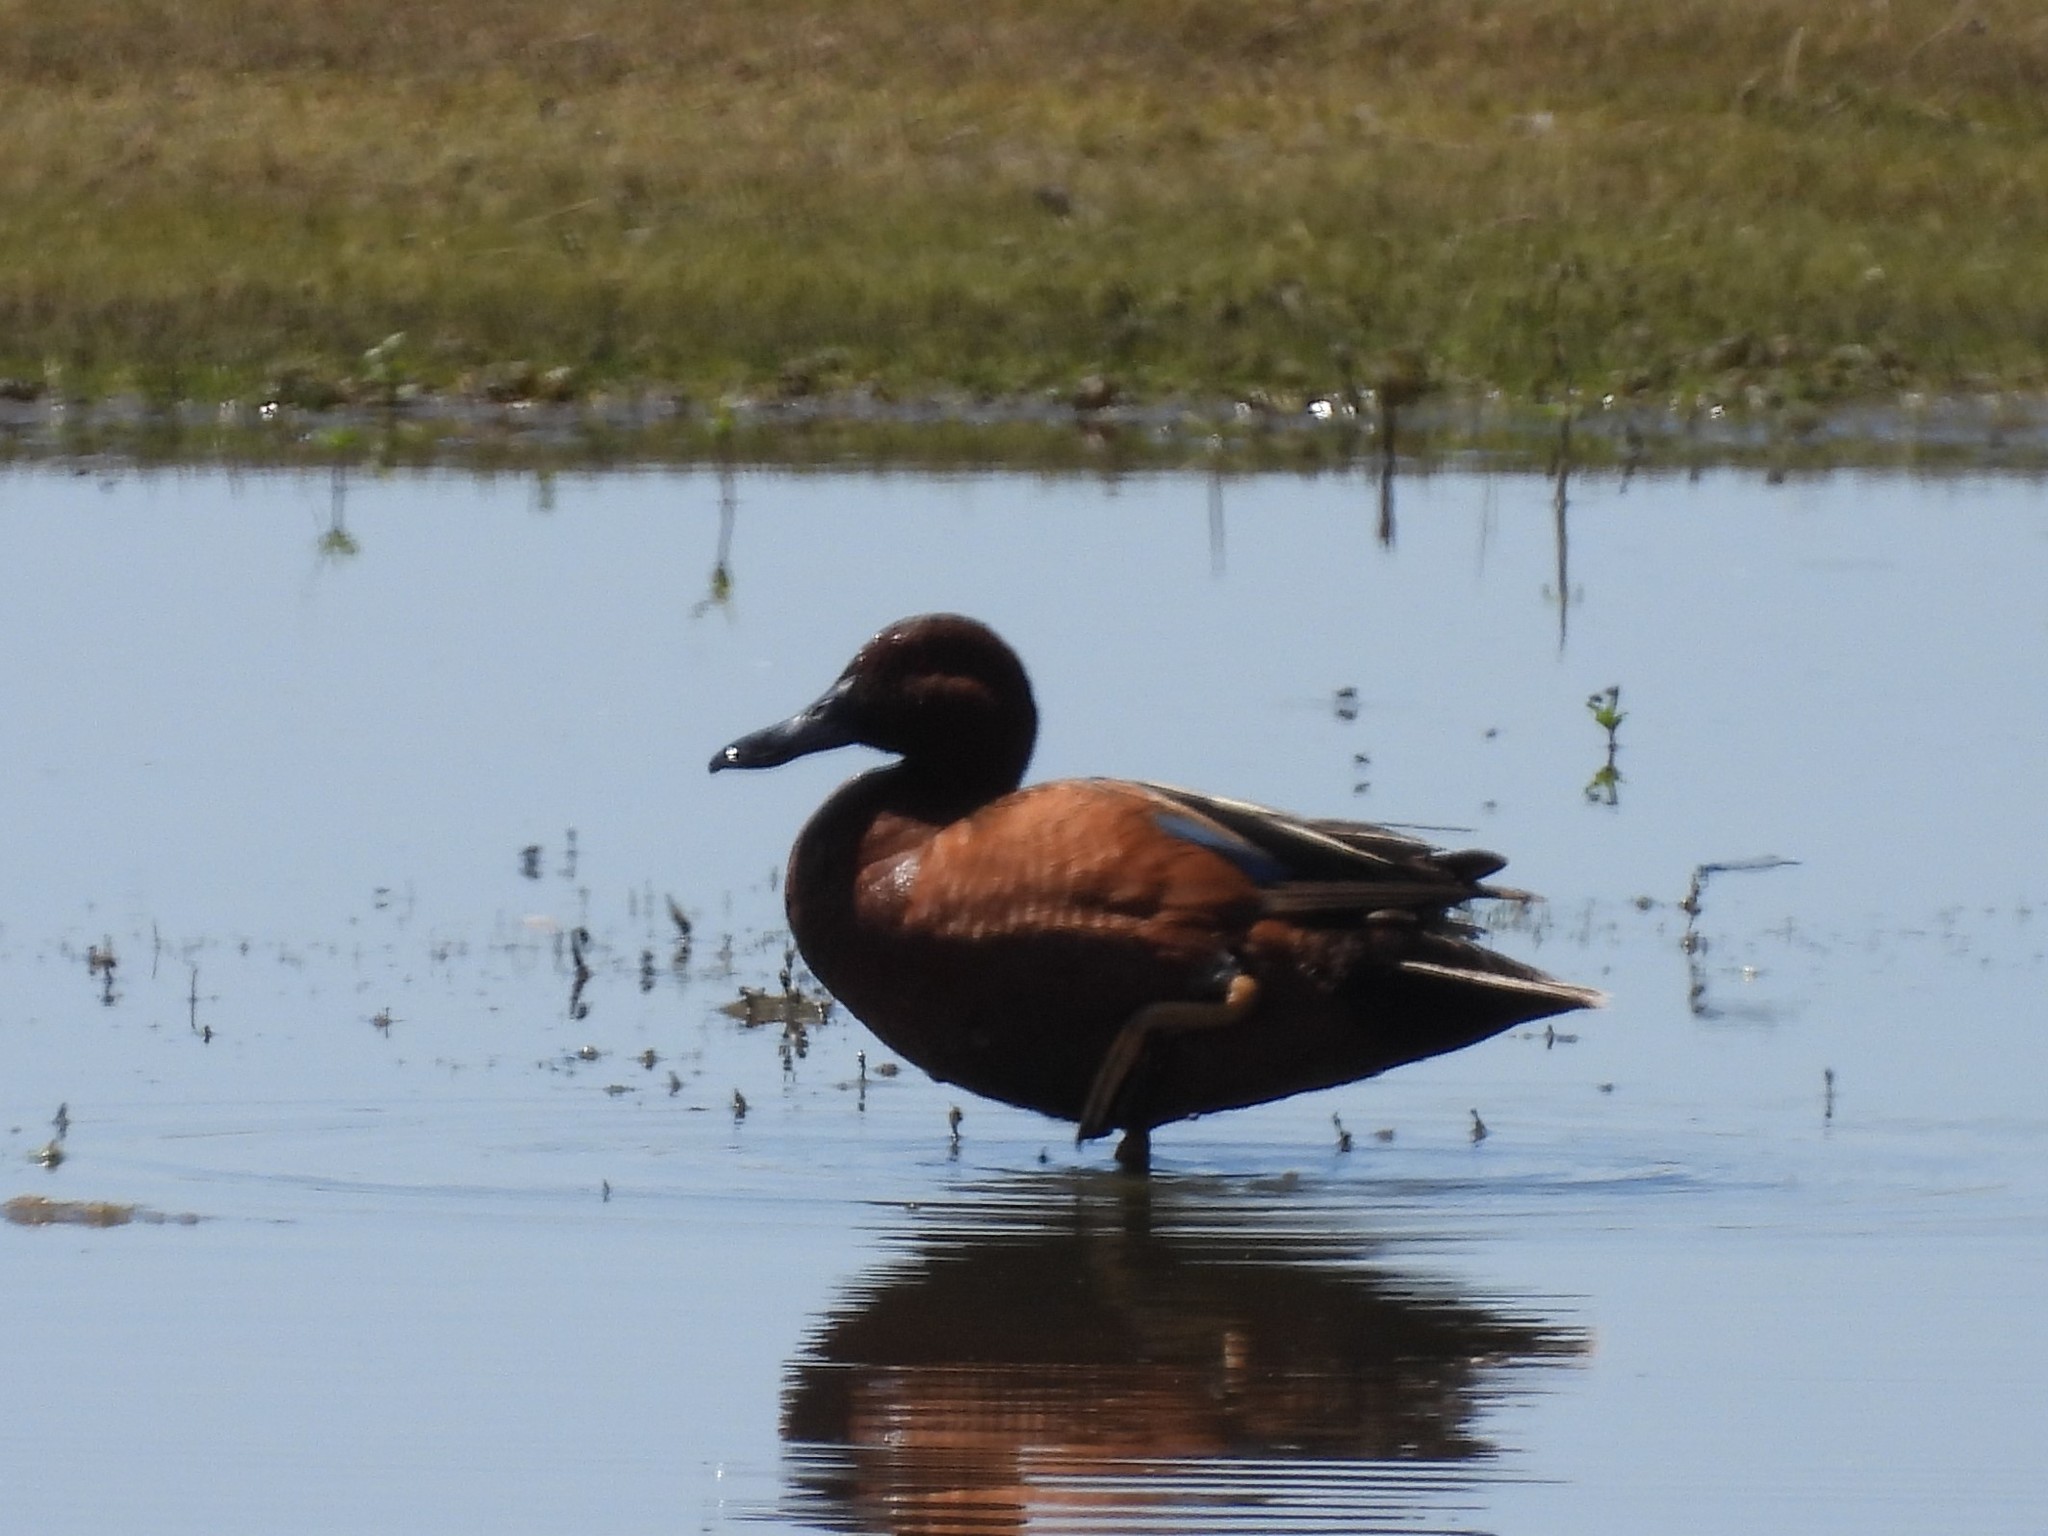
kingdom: Animalia
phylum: Chordata
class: Aves
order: Anseriformes
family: Anatidae
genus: Spatula
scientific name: Spatula cyanoptera
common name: Cinnamon teal
